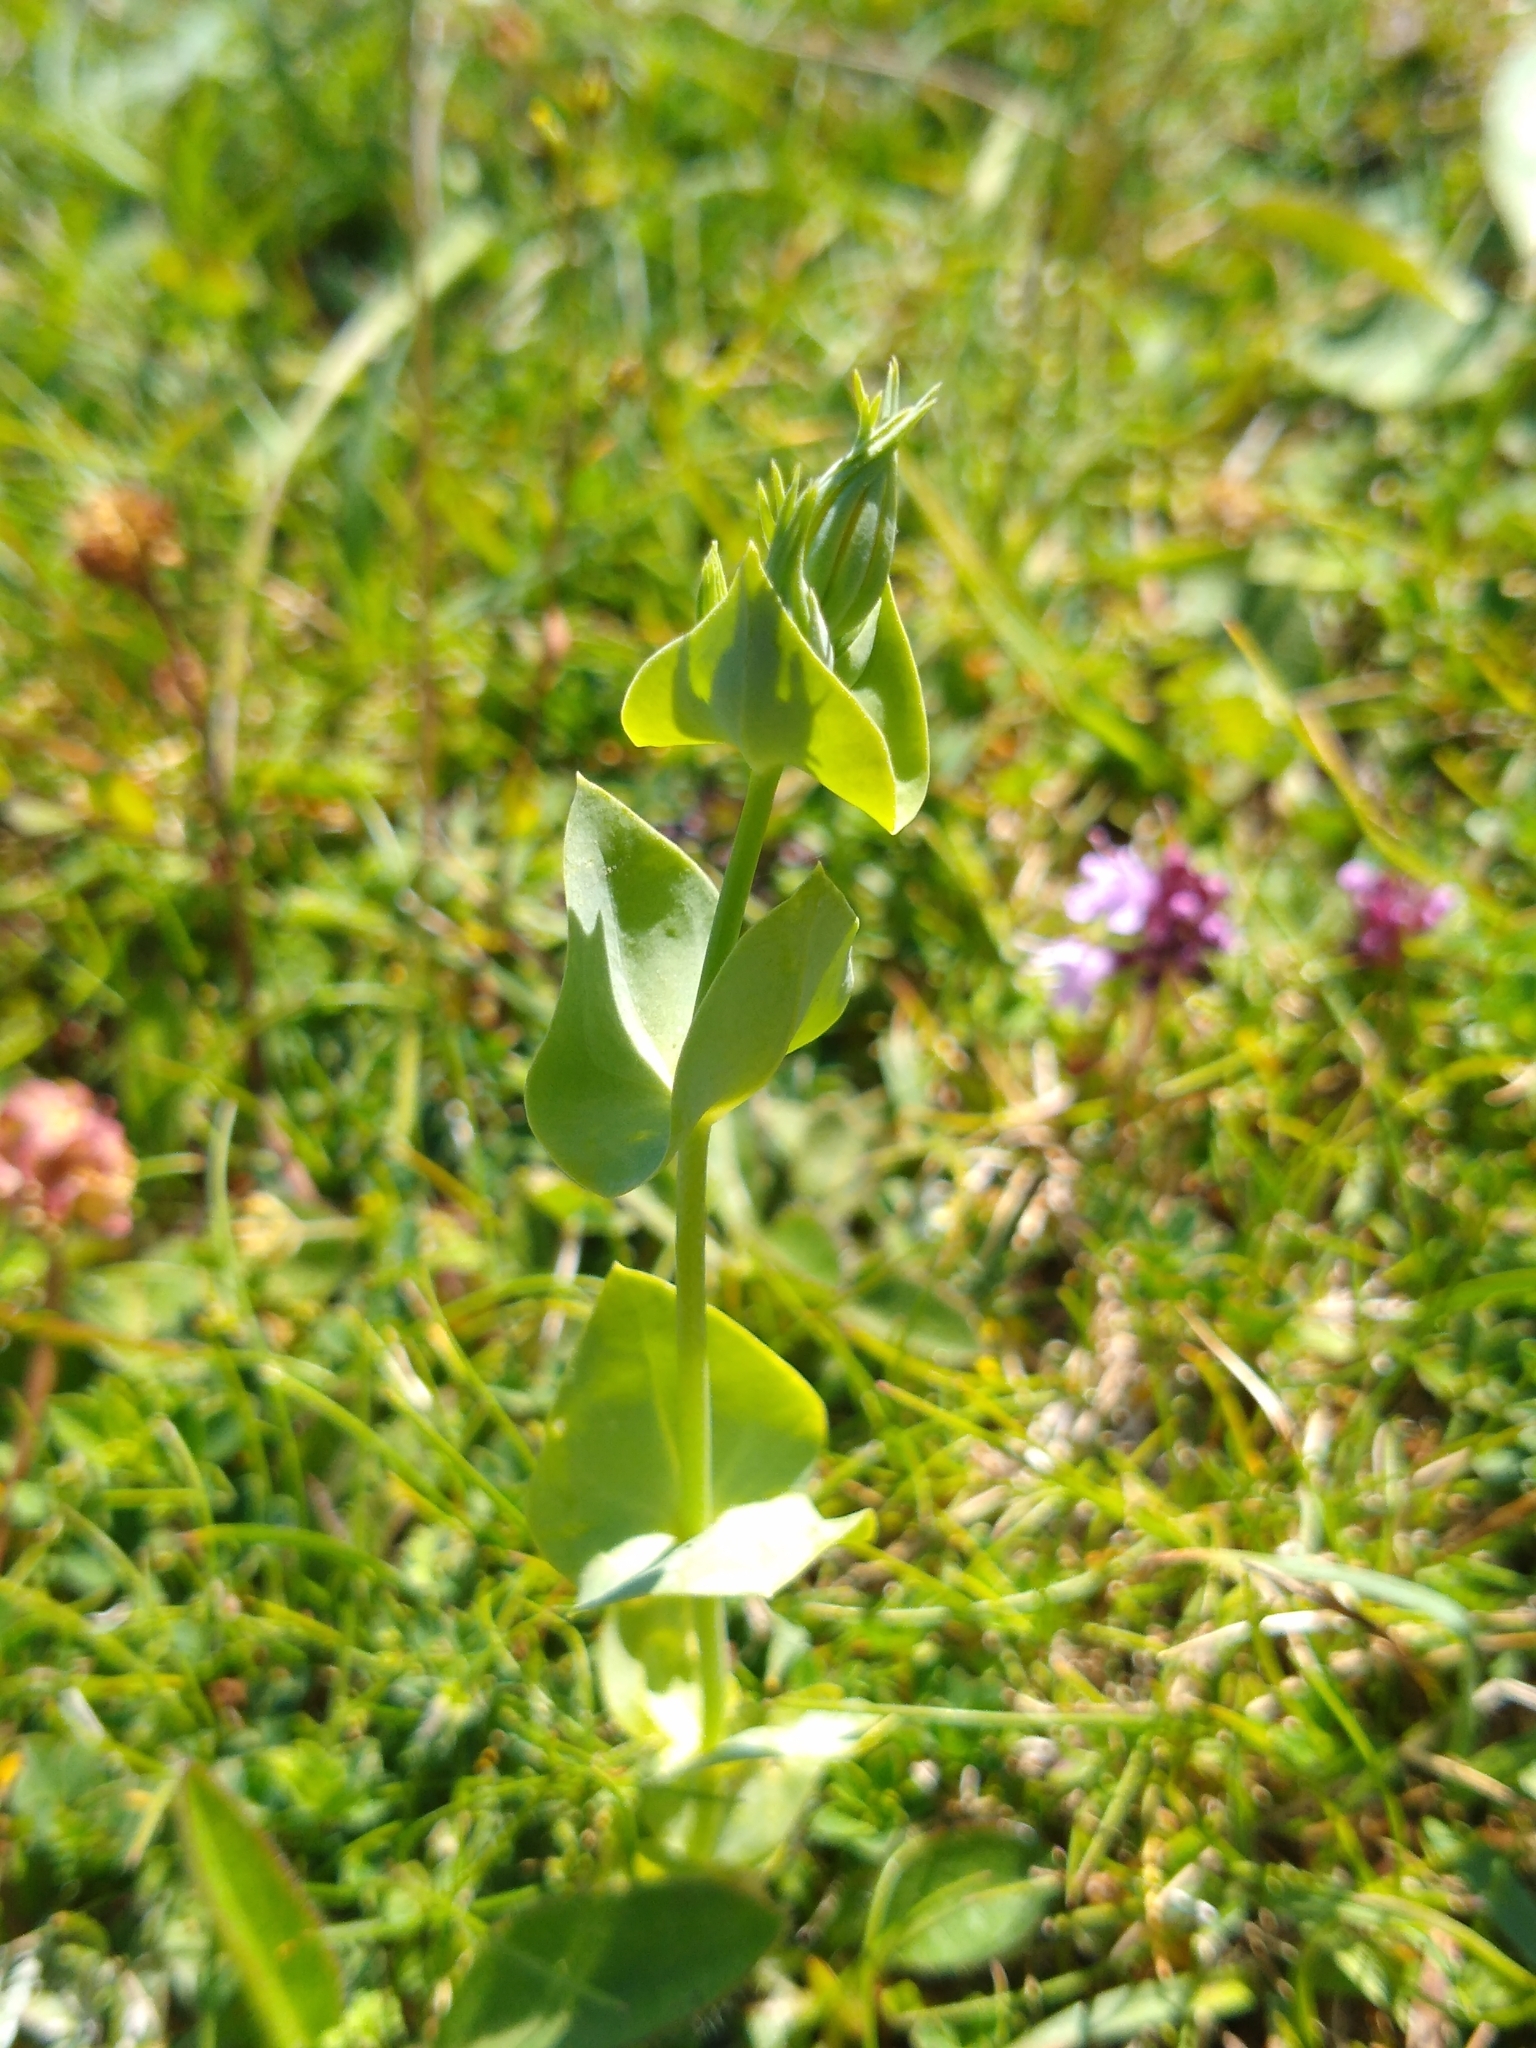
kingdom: Plantae
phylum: Tracheophyta
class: Magnoliopsida
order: Gentianales
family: Gentianaceae
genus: Blackstonia
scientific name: Blackstonia perfoliata
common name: Yellow-wort
